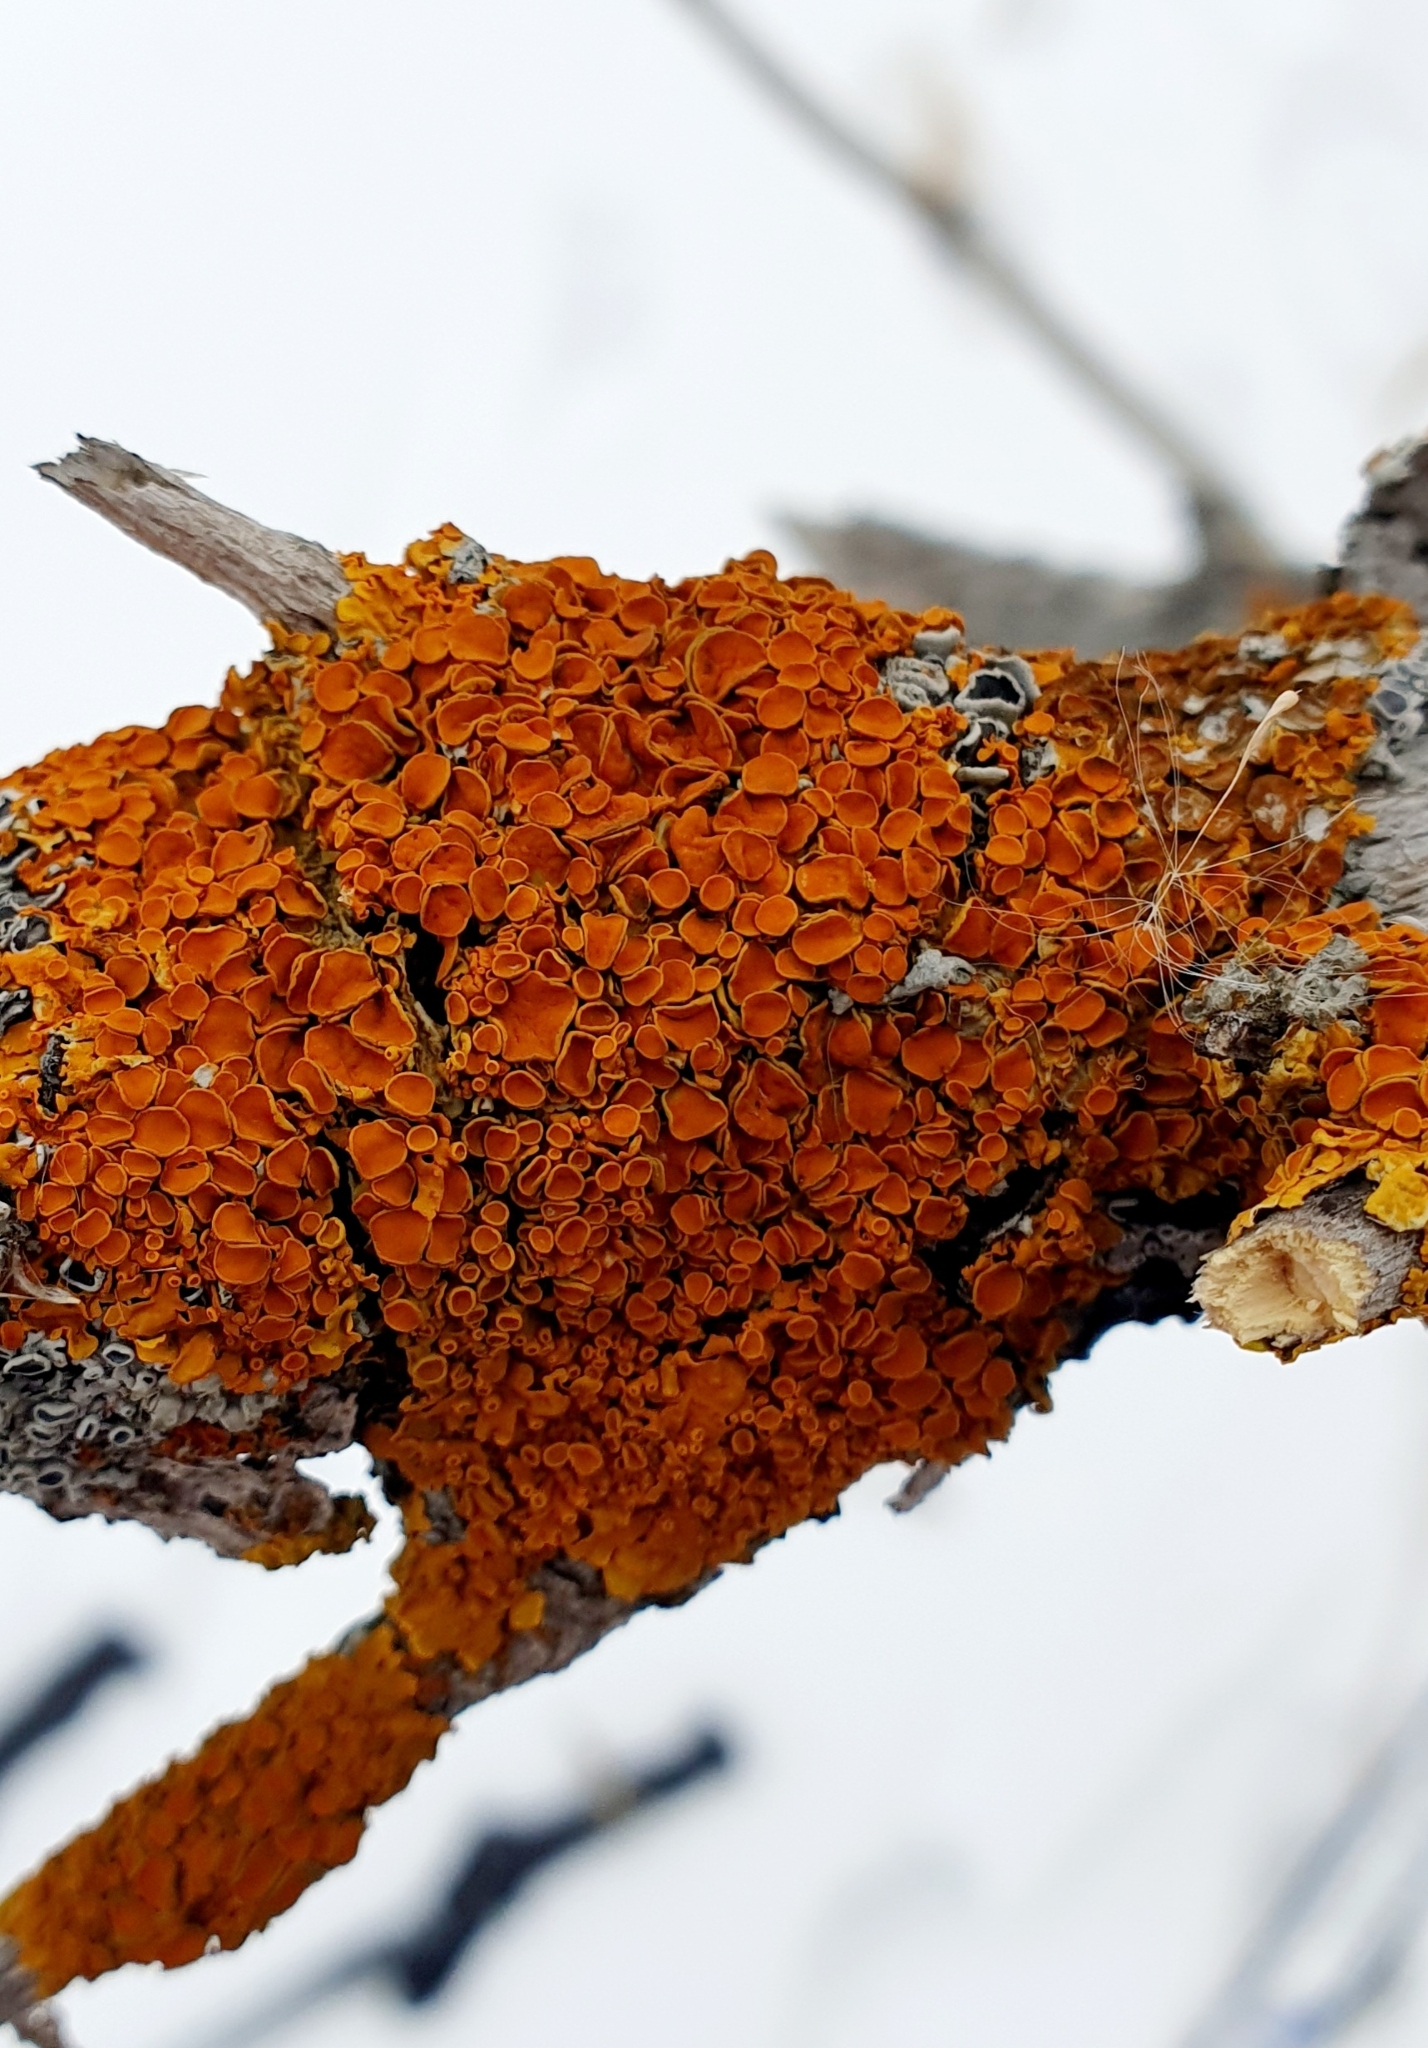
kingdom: Fungi
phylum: Ascomycota
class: Lecanoromycetes
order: Teloschistales
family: Teloschistaceae
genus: Xanthoria
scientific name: Xanthoria parietina
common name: Common orange lichen
